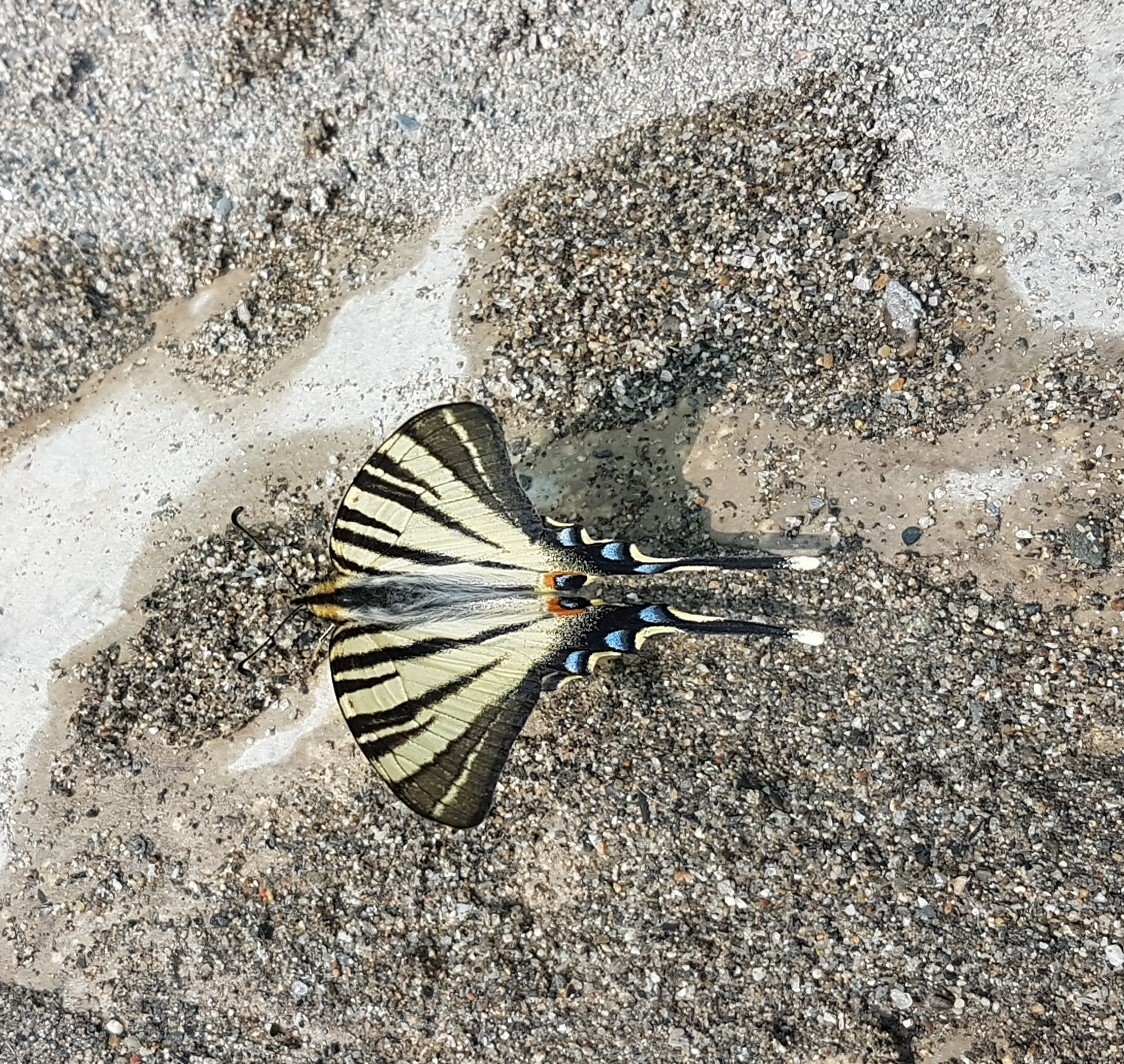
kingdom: Animalia
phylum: Arthropoda
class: Insecta
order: Lepidoptera
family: Papilionidae
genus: Iphiclides
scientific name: Iphiclides podalirius
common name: Scarce swallowtail
